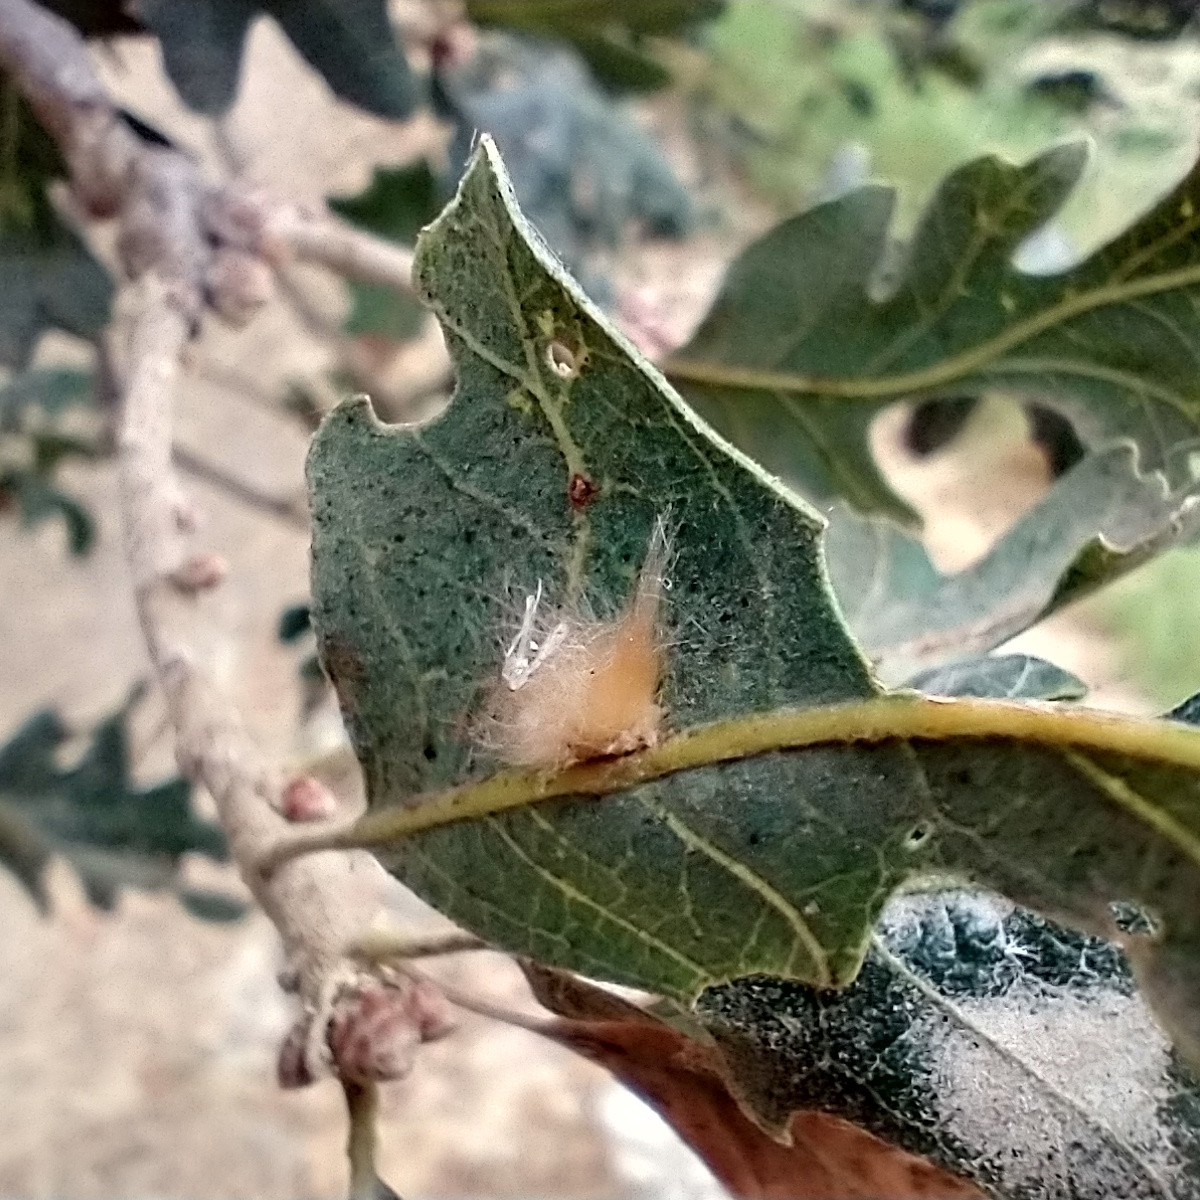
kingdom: Animalia
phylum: Arthropoda
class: Insecta
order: Hymenoptera
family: Cynipidae
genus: Andricus
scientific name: Andricus Druon fullawayi
